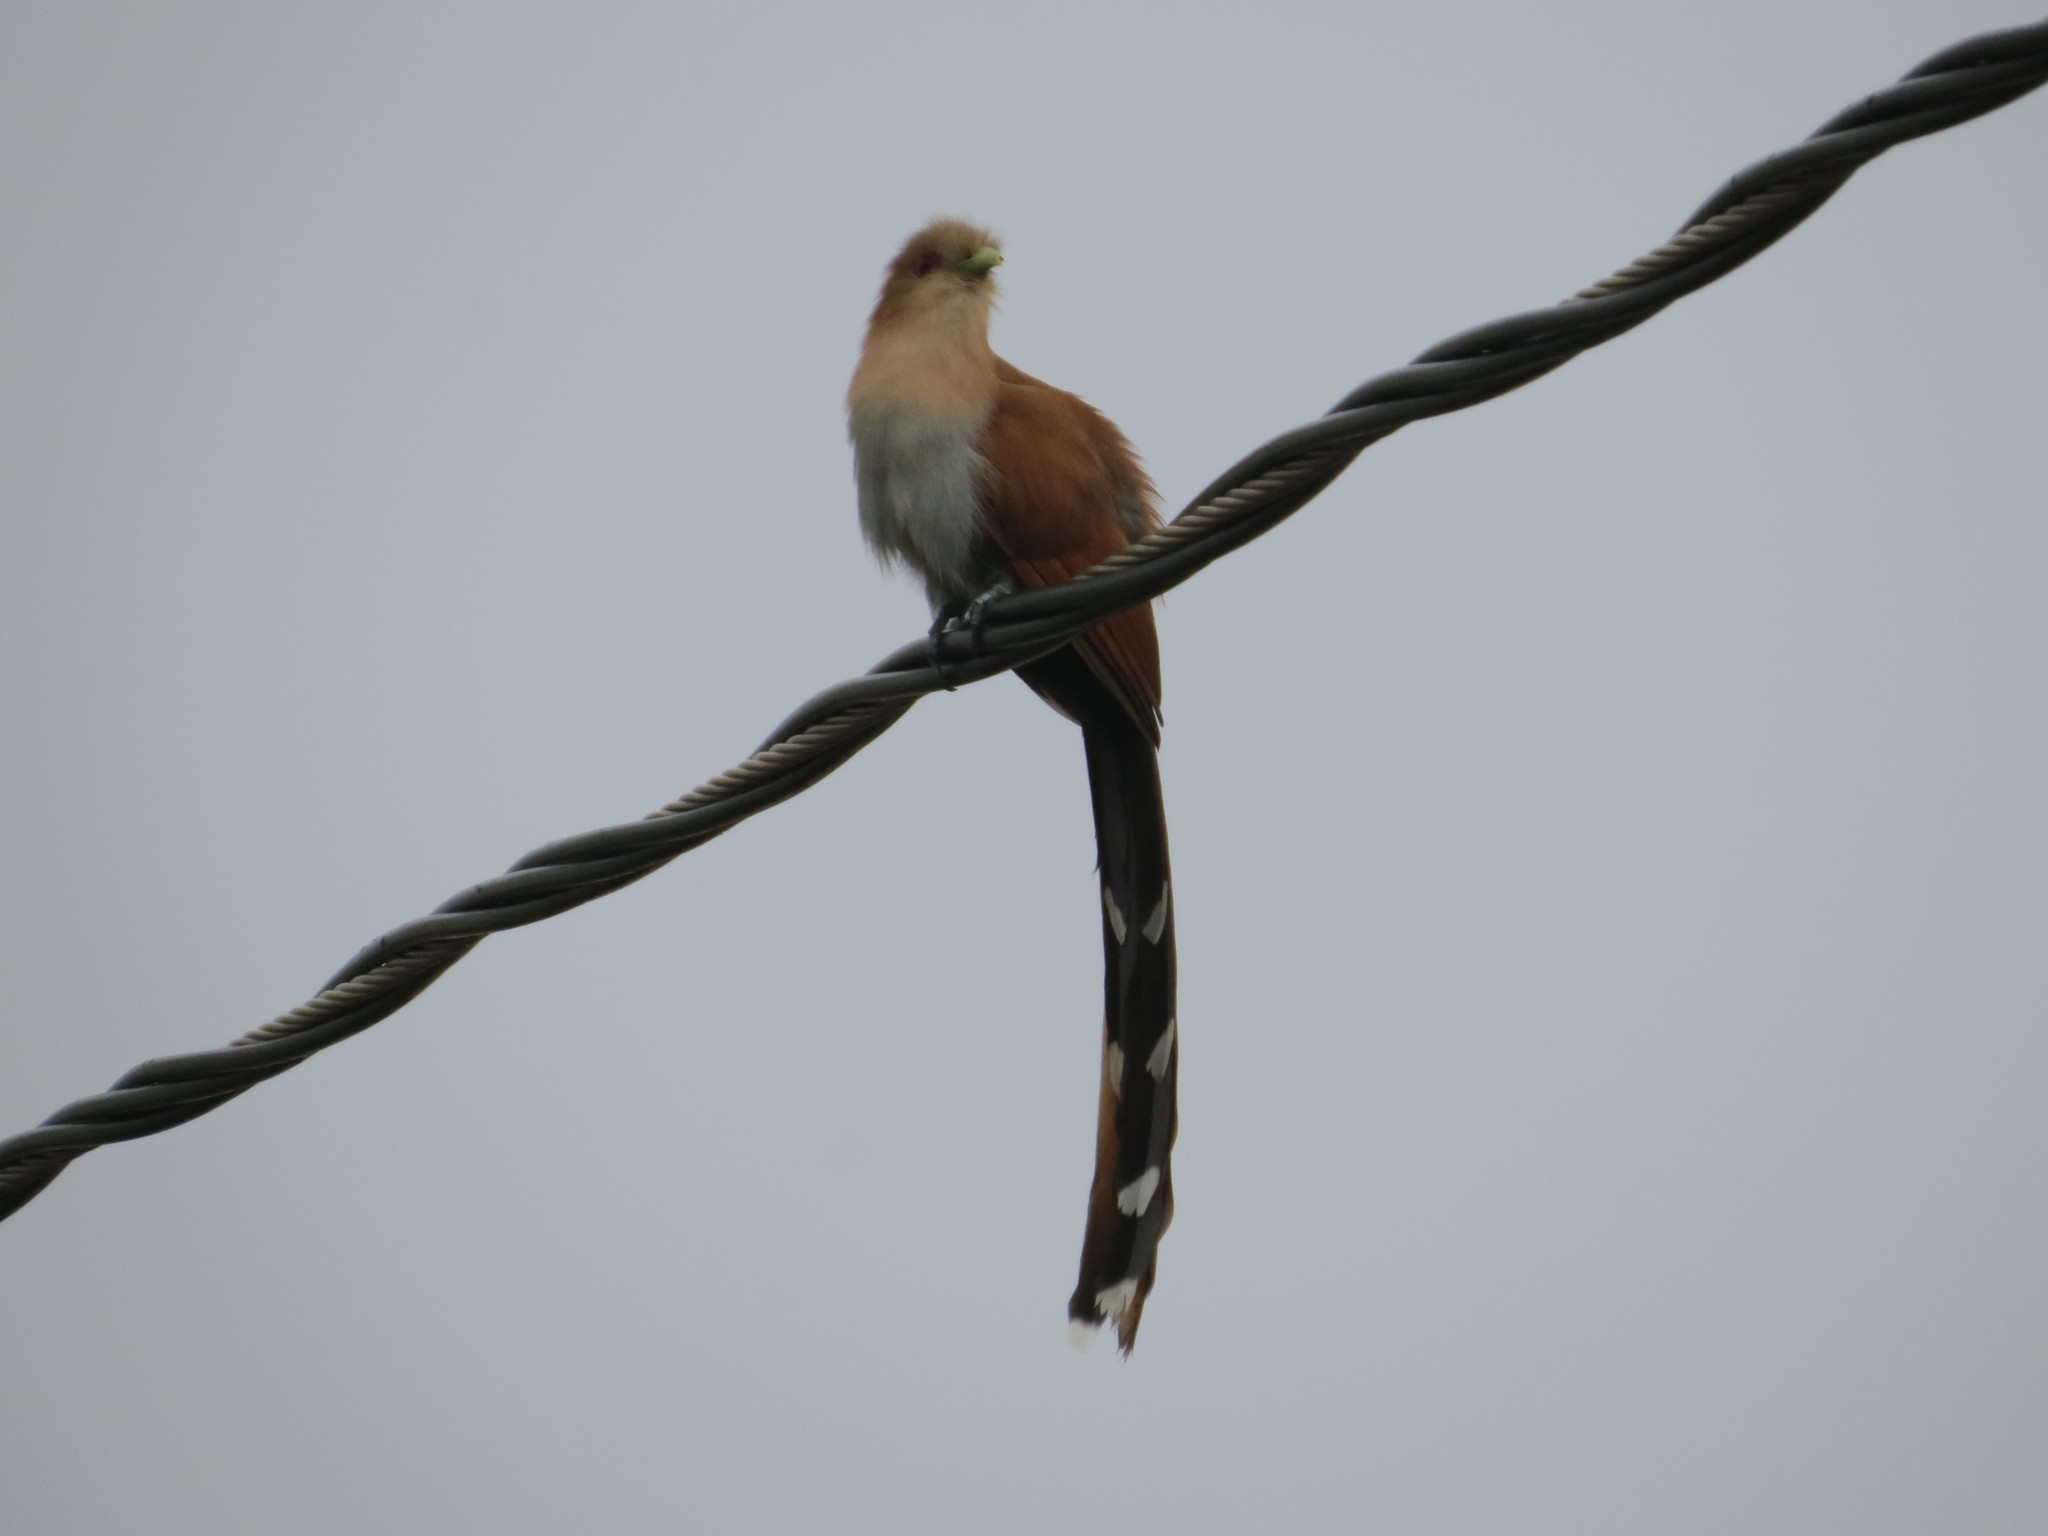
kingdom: Animalia
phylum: Chordata
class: Aves
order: Cuculiformes
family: Cuculidae
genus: Piaya
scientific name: Piaya cayana
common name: Squirrel cuckoo
